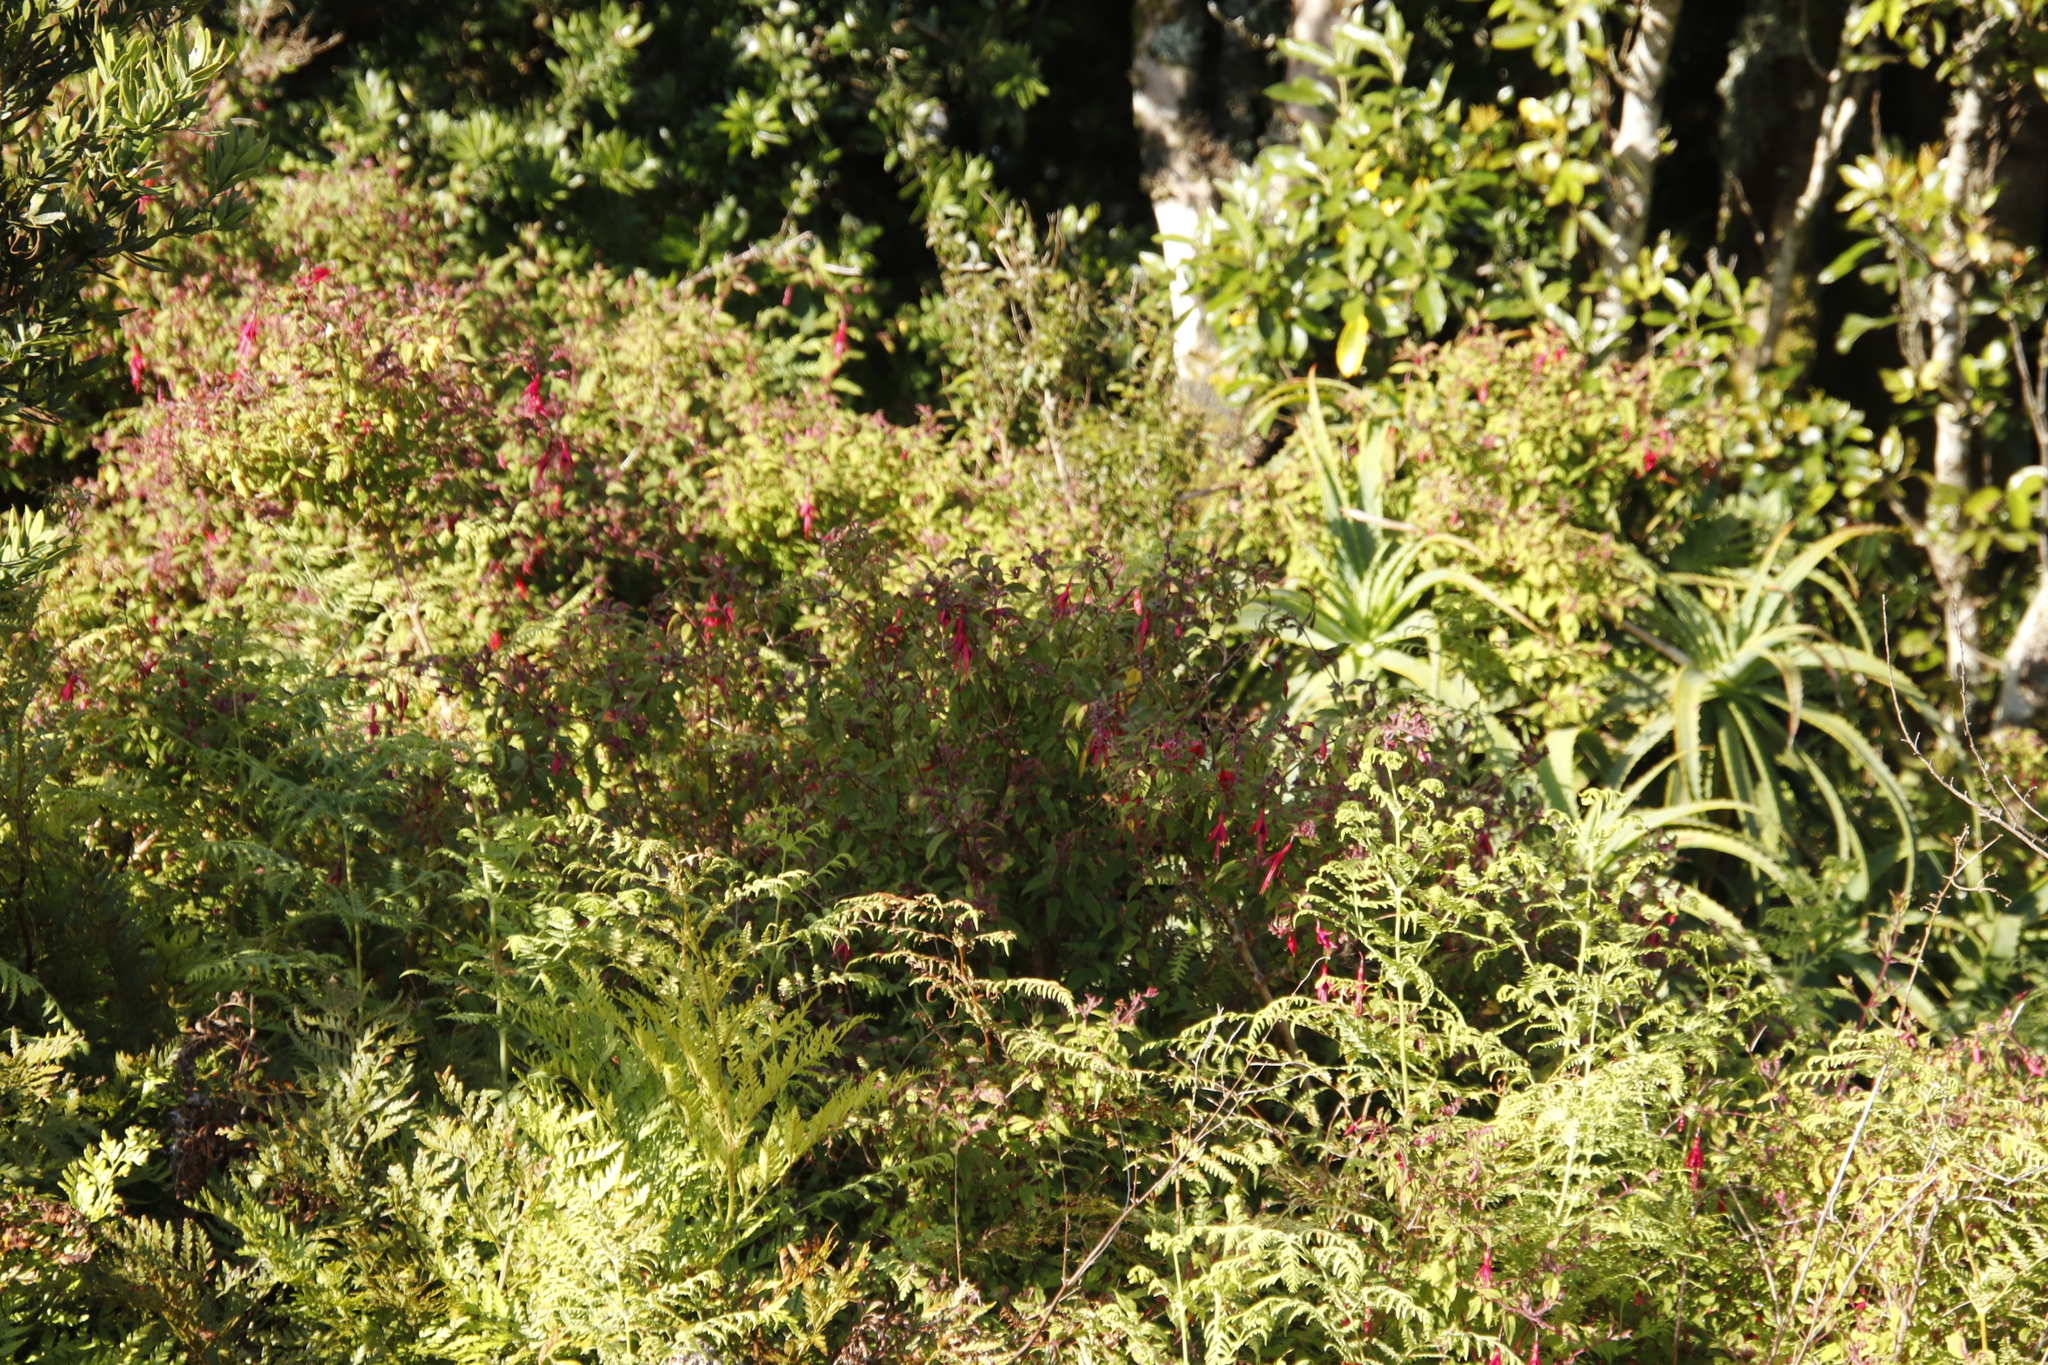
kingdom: Plantae
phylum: Tracheophyta
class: Polypodiopsida
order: Polypodiales
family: Dennstaedtiaceae
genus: Pteridium
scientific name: Pteridium aquilinum
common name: Bracken
